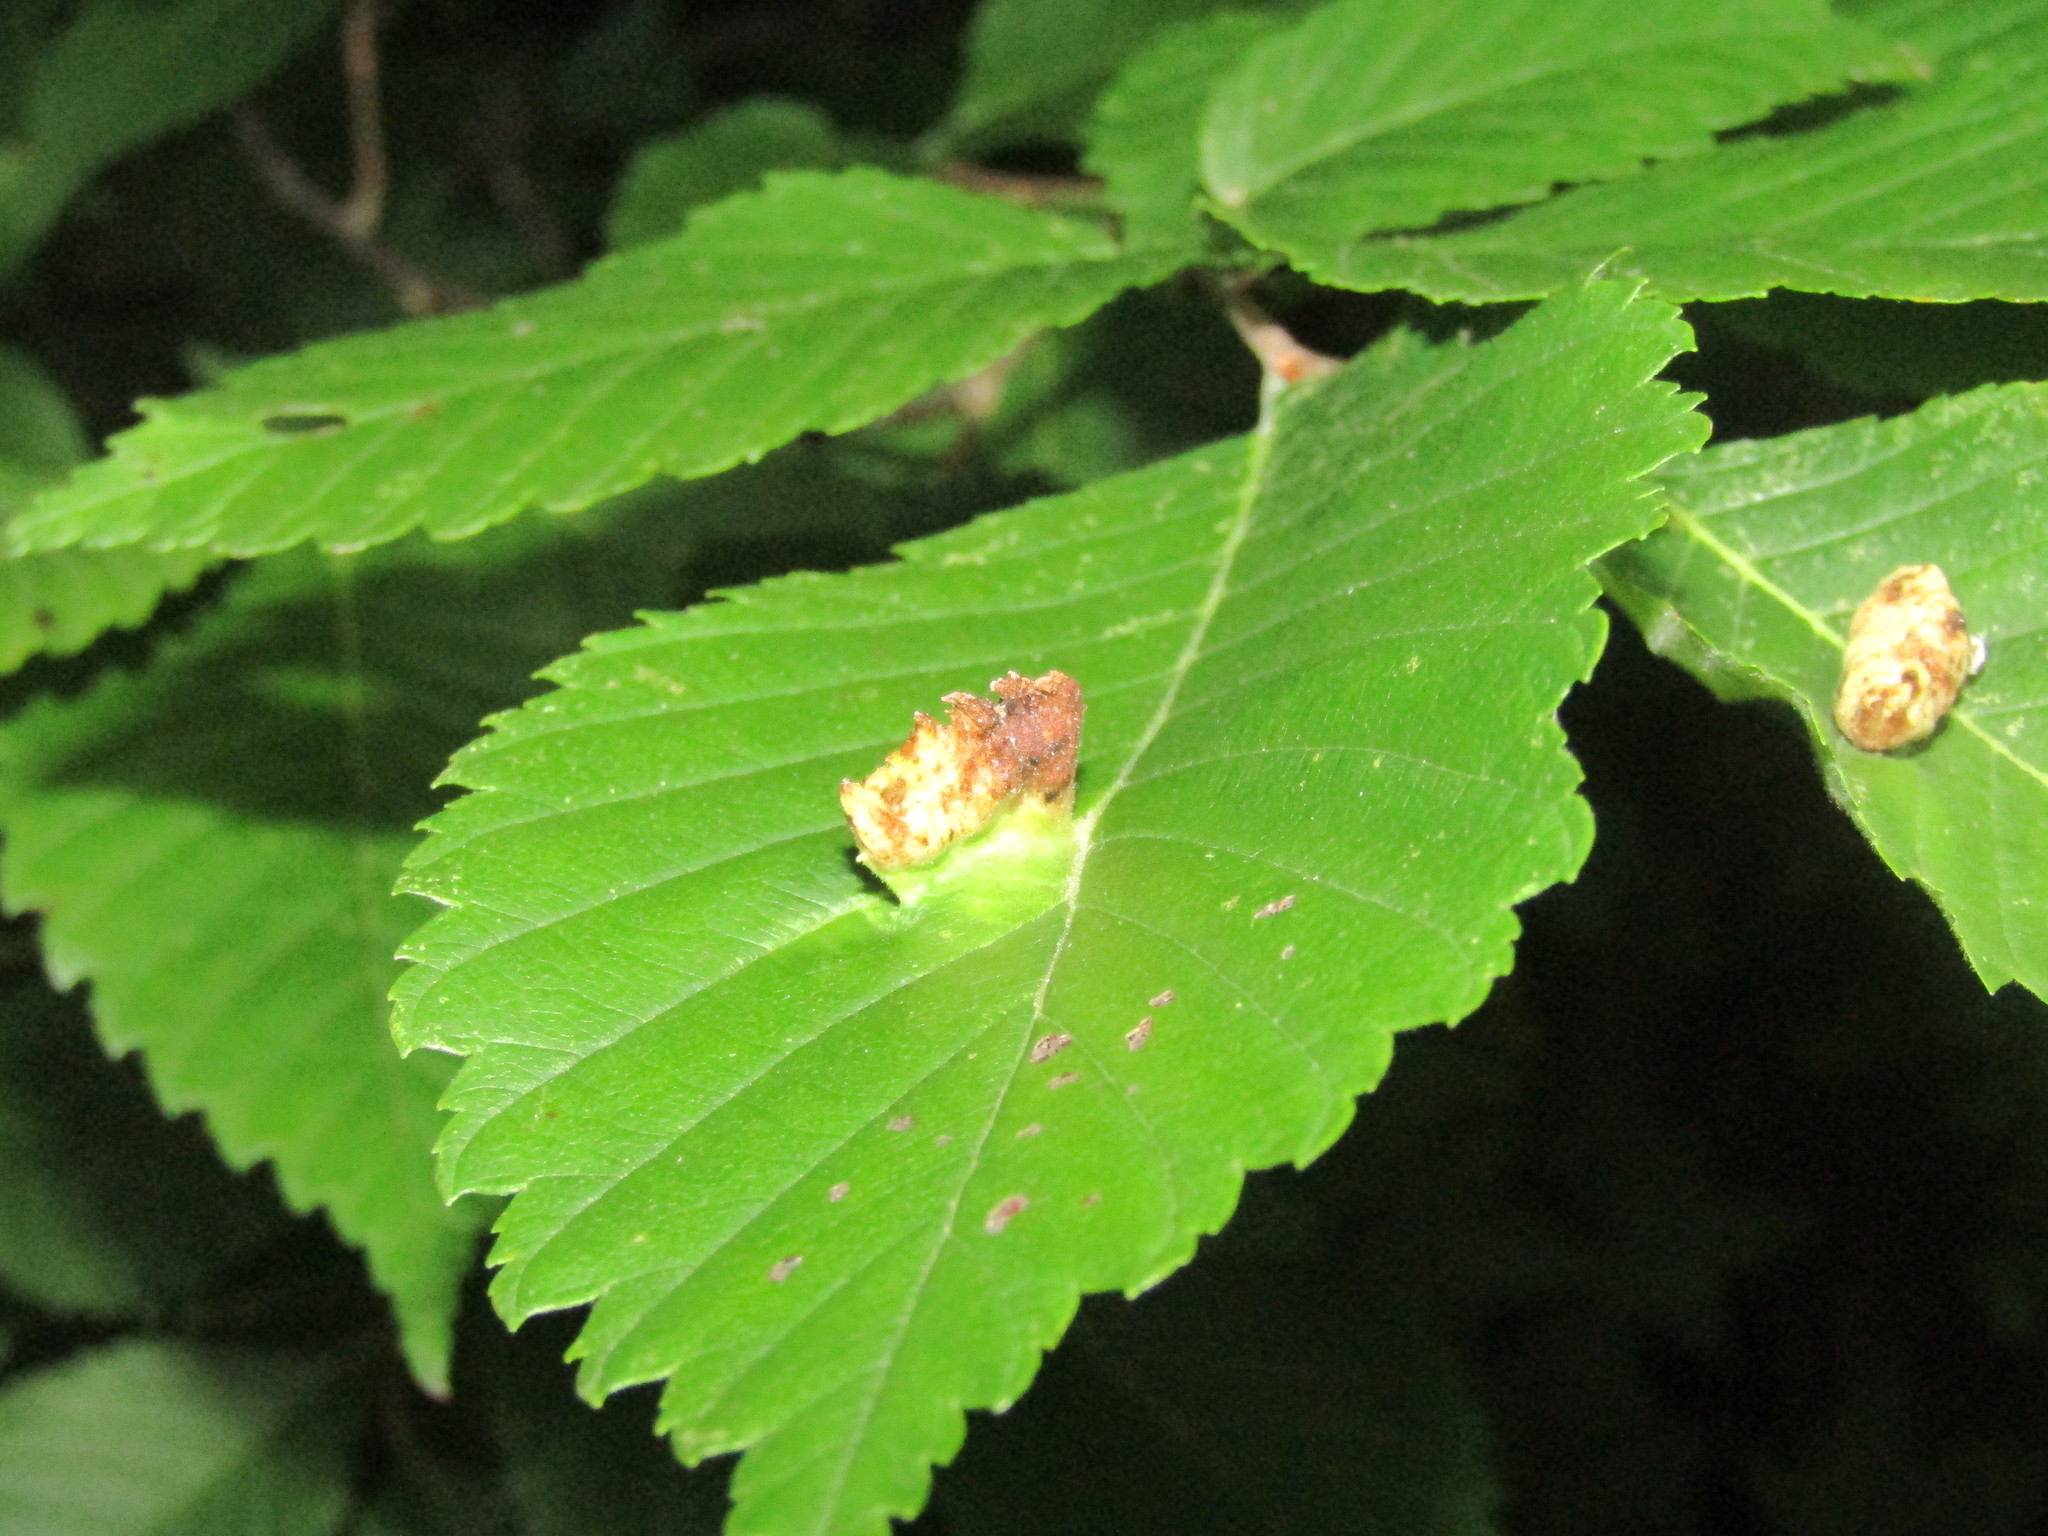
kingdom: Animalia
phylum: Arthropoda
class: Insecta
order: Hemiptera
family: Aphididae
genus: Colopha
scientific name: Colopha ulmicola
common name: Elm cockscombgall aphid
